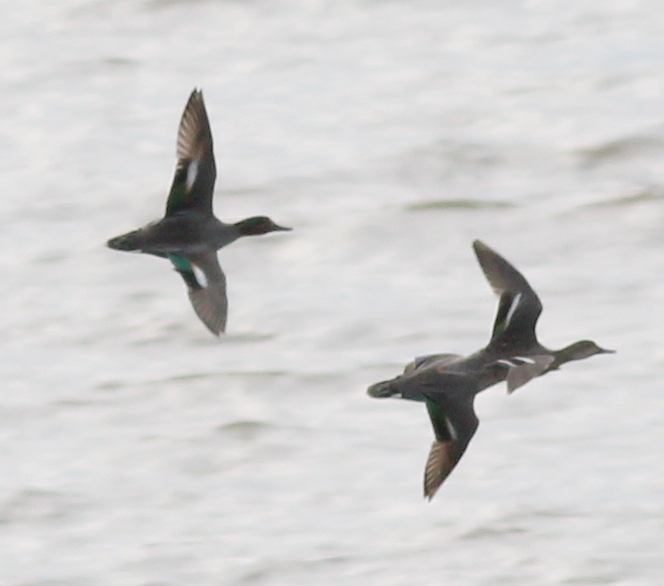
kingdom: Animalia
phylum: Chordata
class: Aves
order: Anseriformes
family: Anatidae
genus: Anas
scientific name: Anas crecca
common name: Eurasian teal
